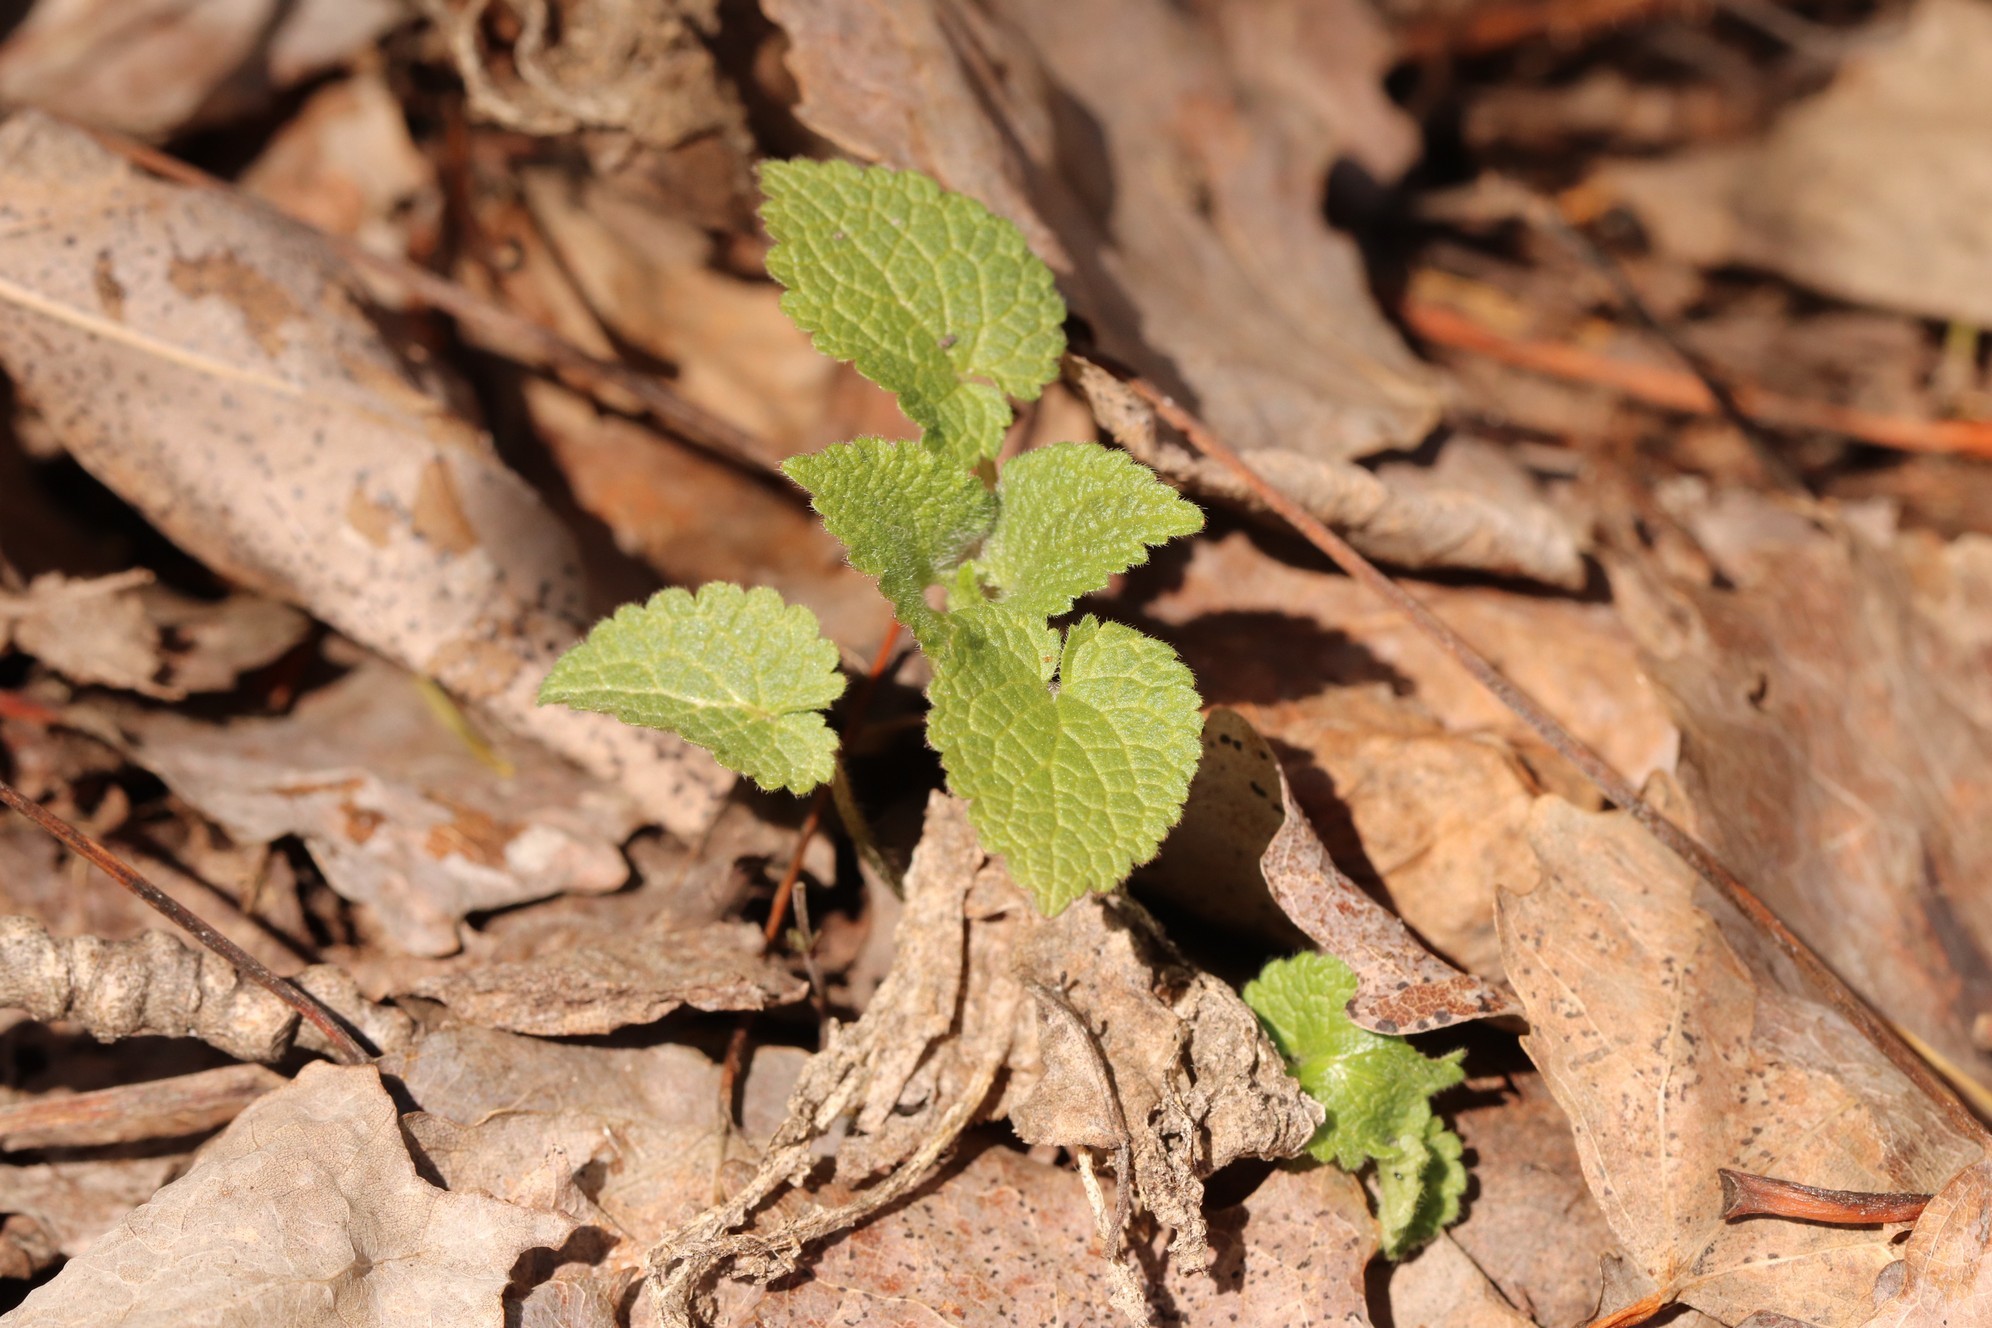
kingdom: Plantae
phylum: Tracheophyta
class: Magnoliopsida
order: Lamiales
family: Lamiaceae
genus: Lamium
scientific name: Lamium album
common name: White dead-nettle
